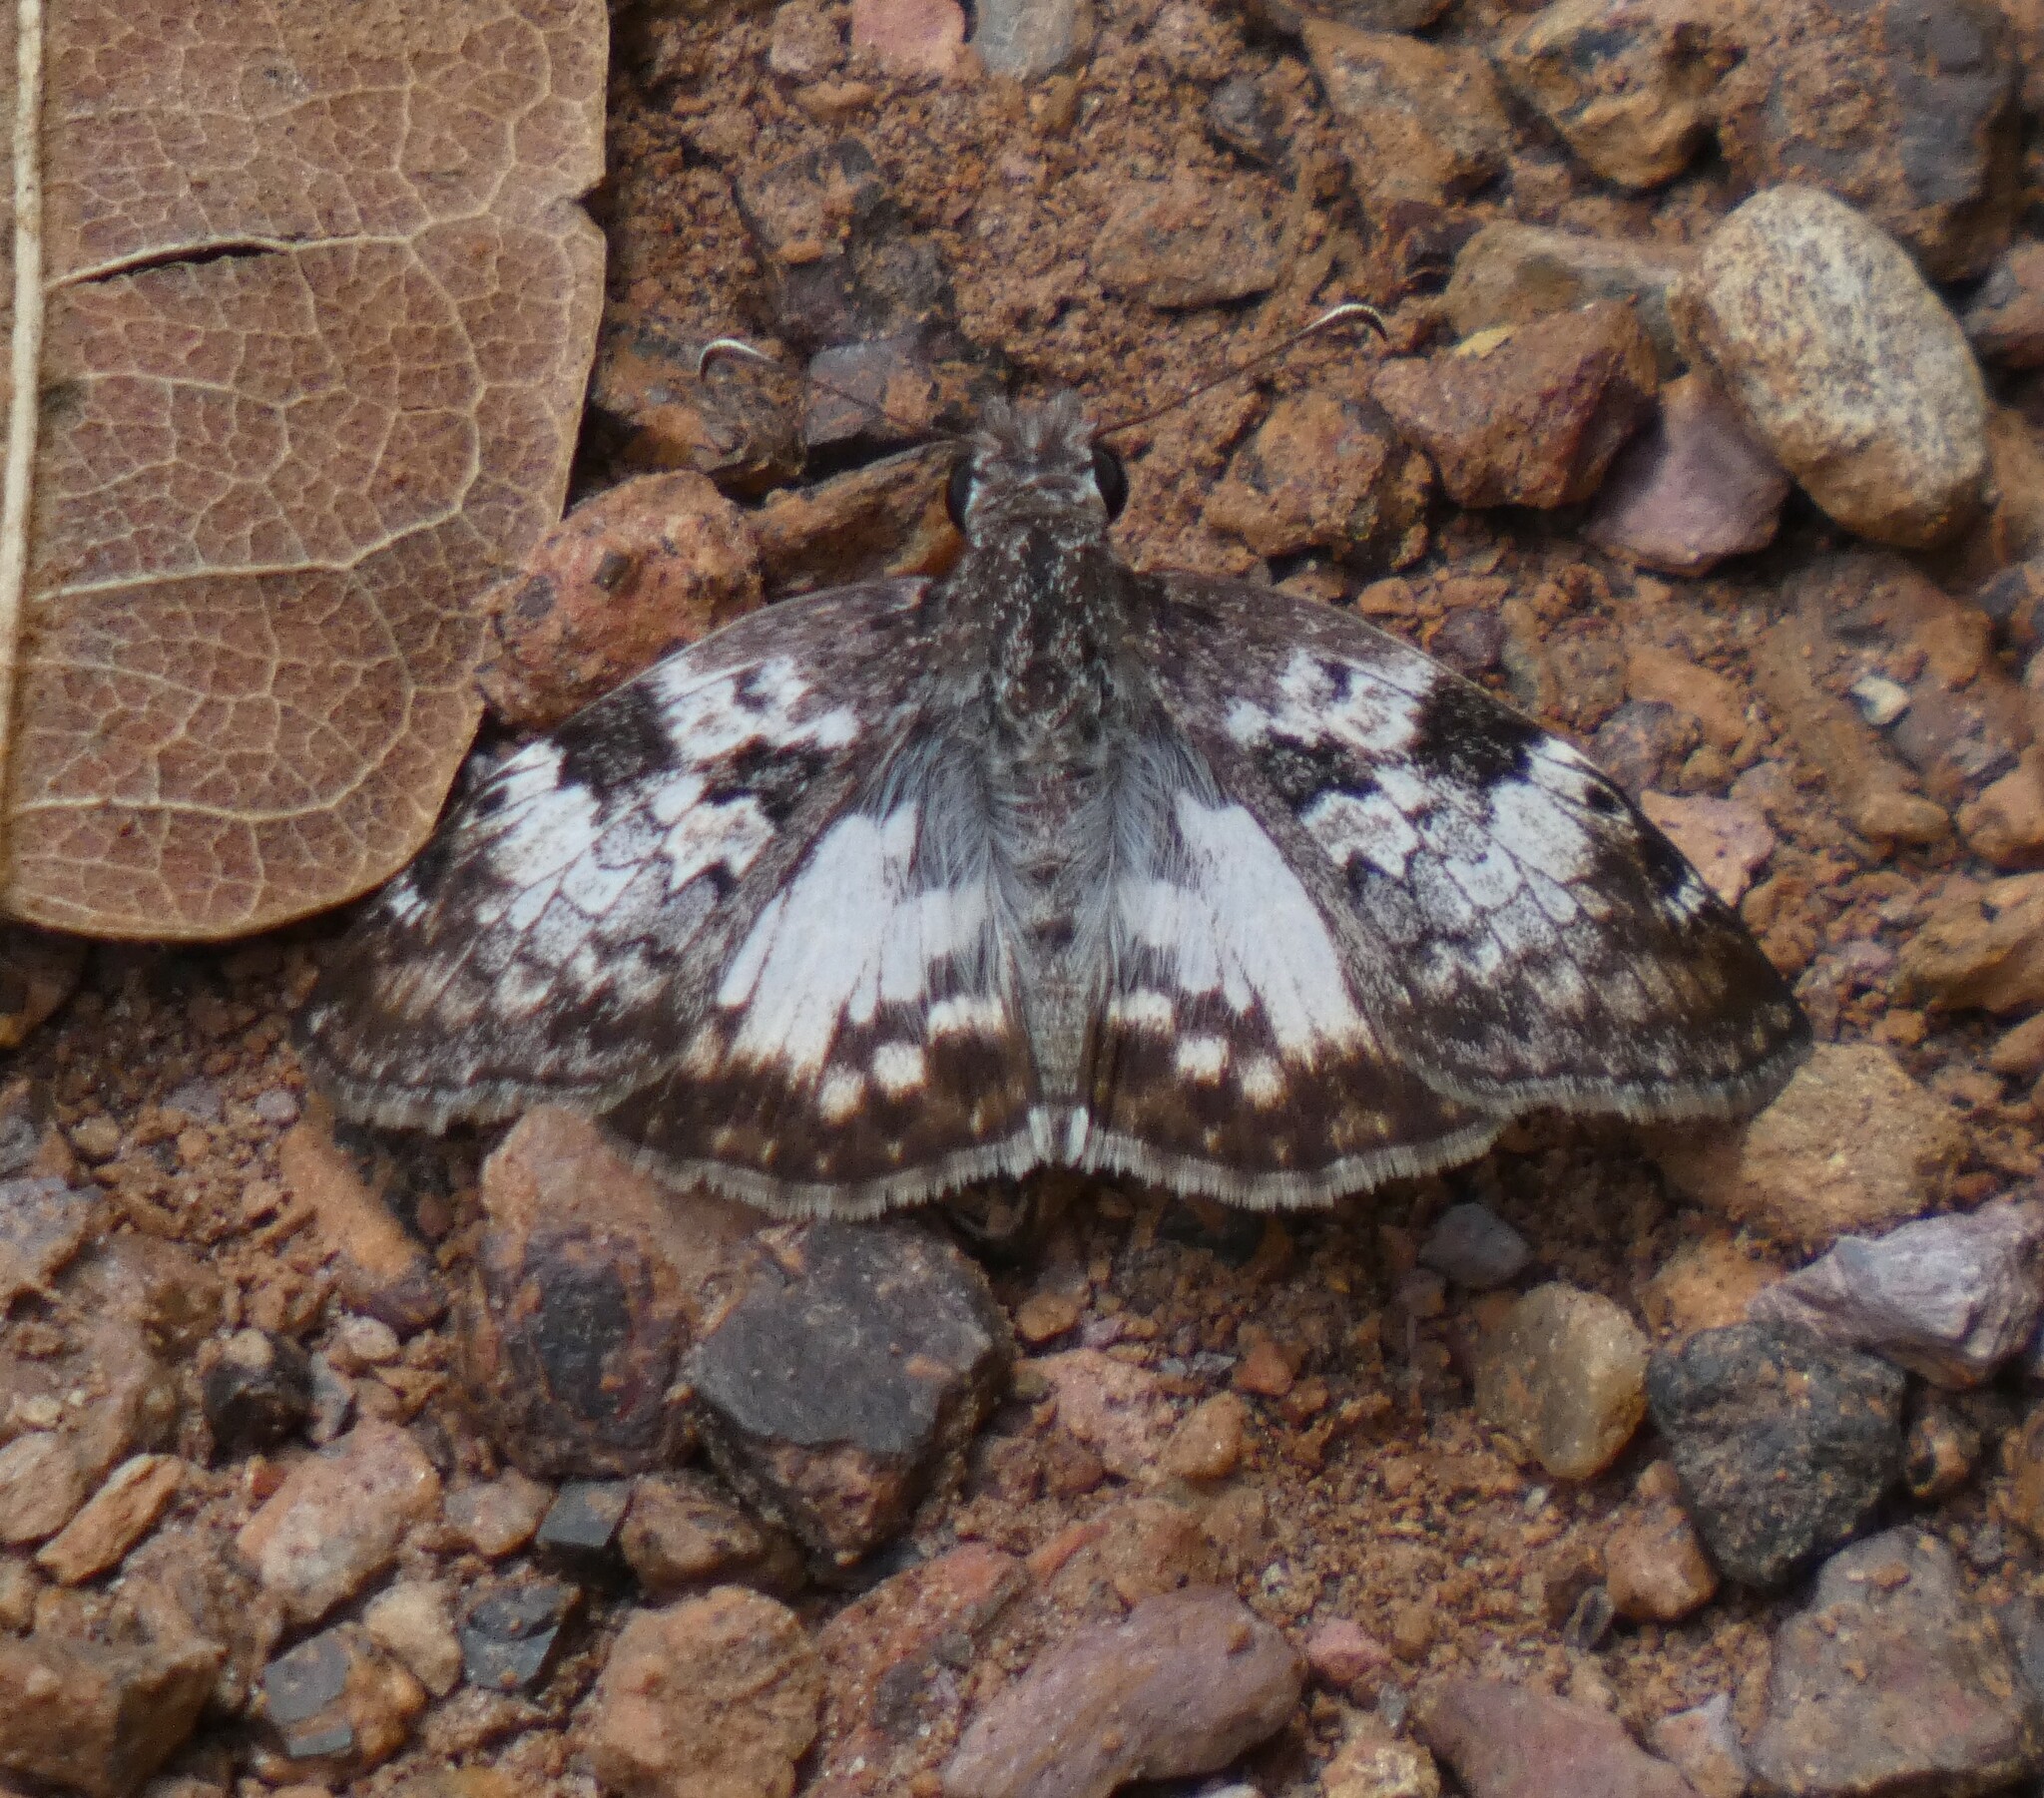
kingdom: Animalia
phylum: Arthropoda
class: Insecta
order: Lepidoptera
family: Hesperiidae
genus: Chiomara
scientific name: Chiomara asychis
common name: White-patterned skipper
